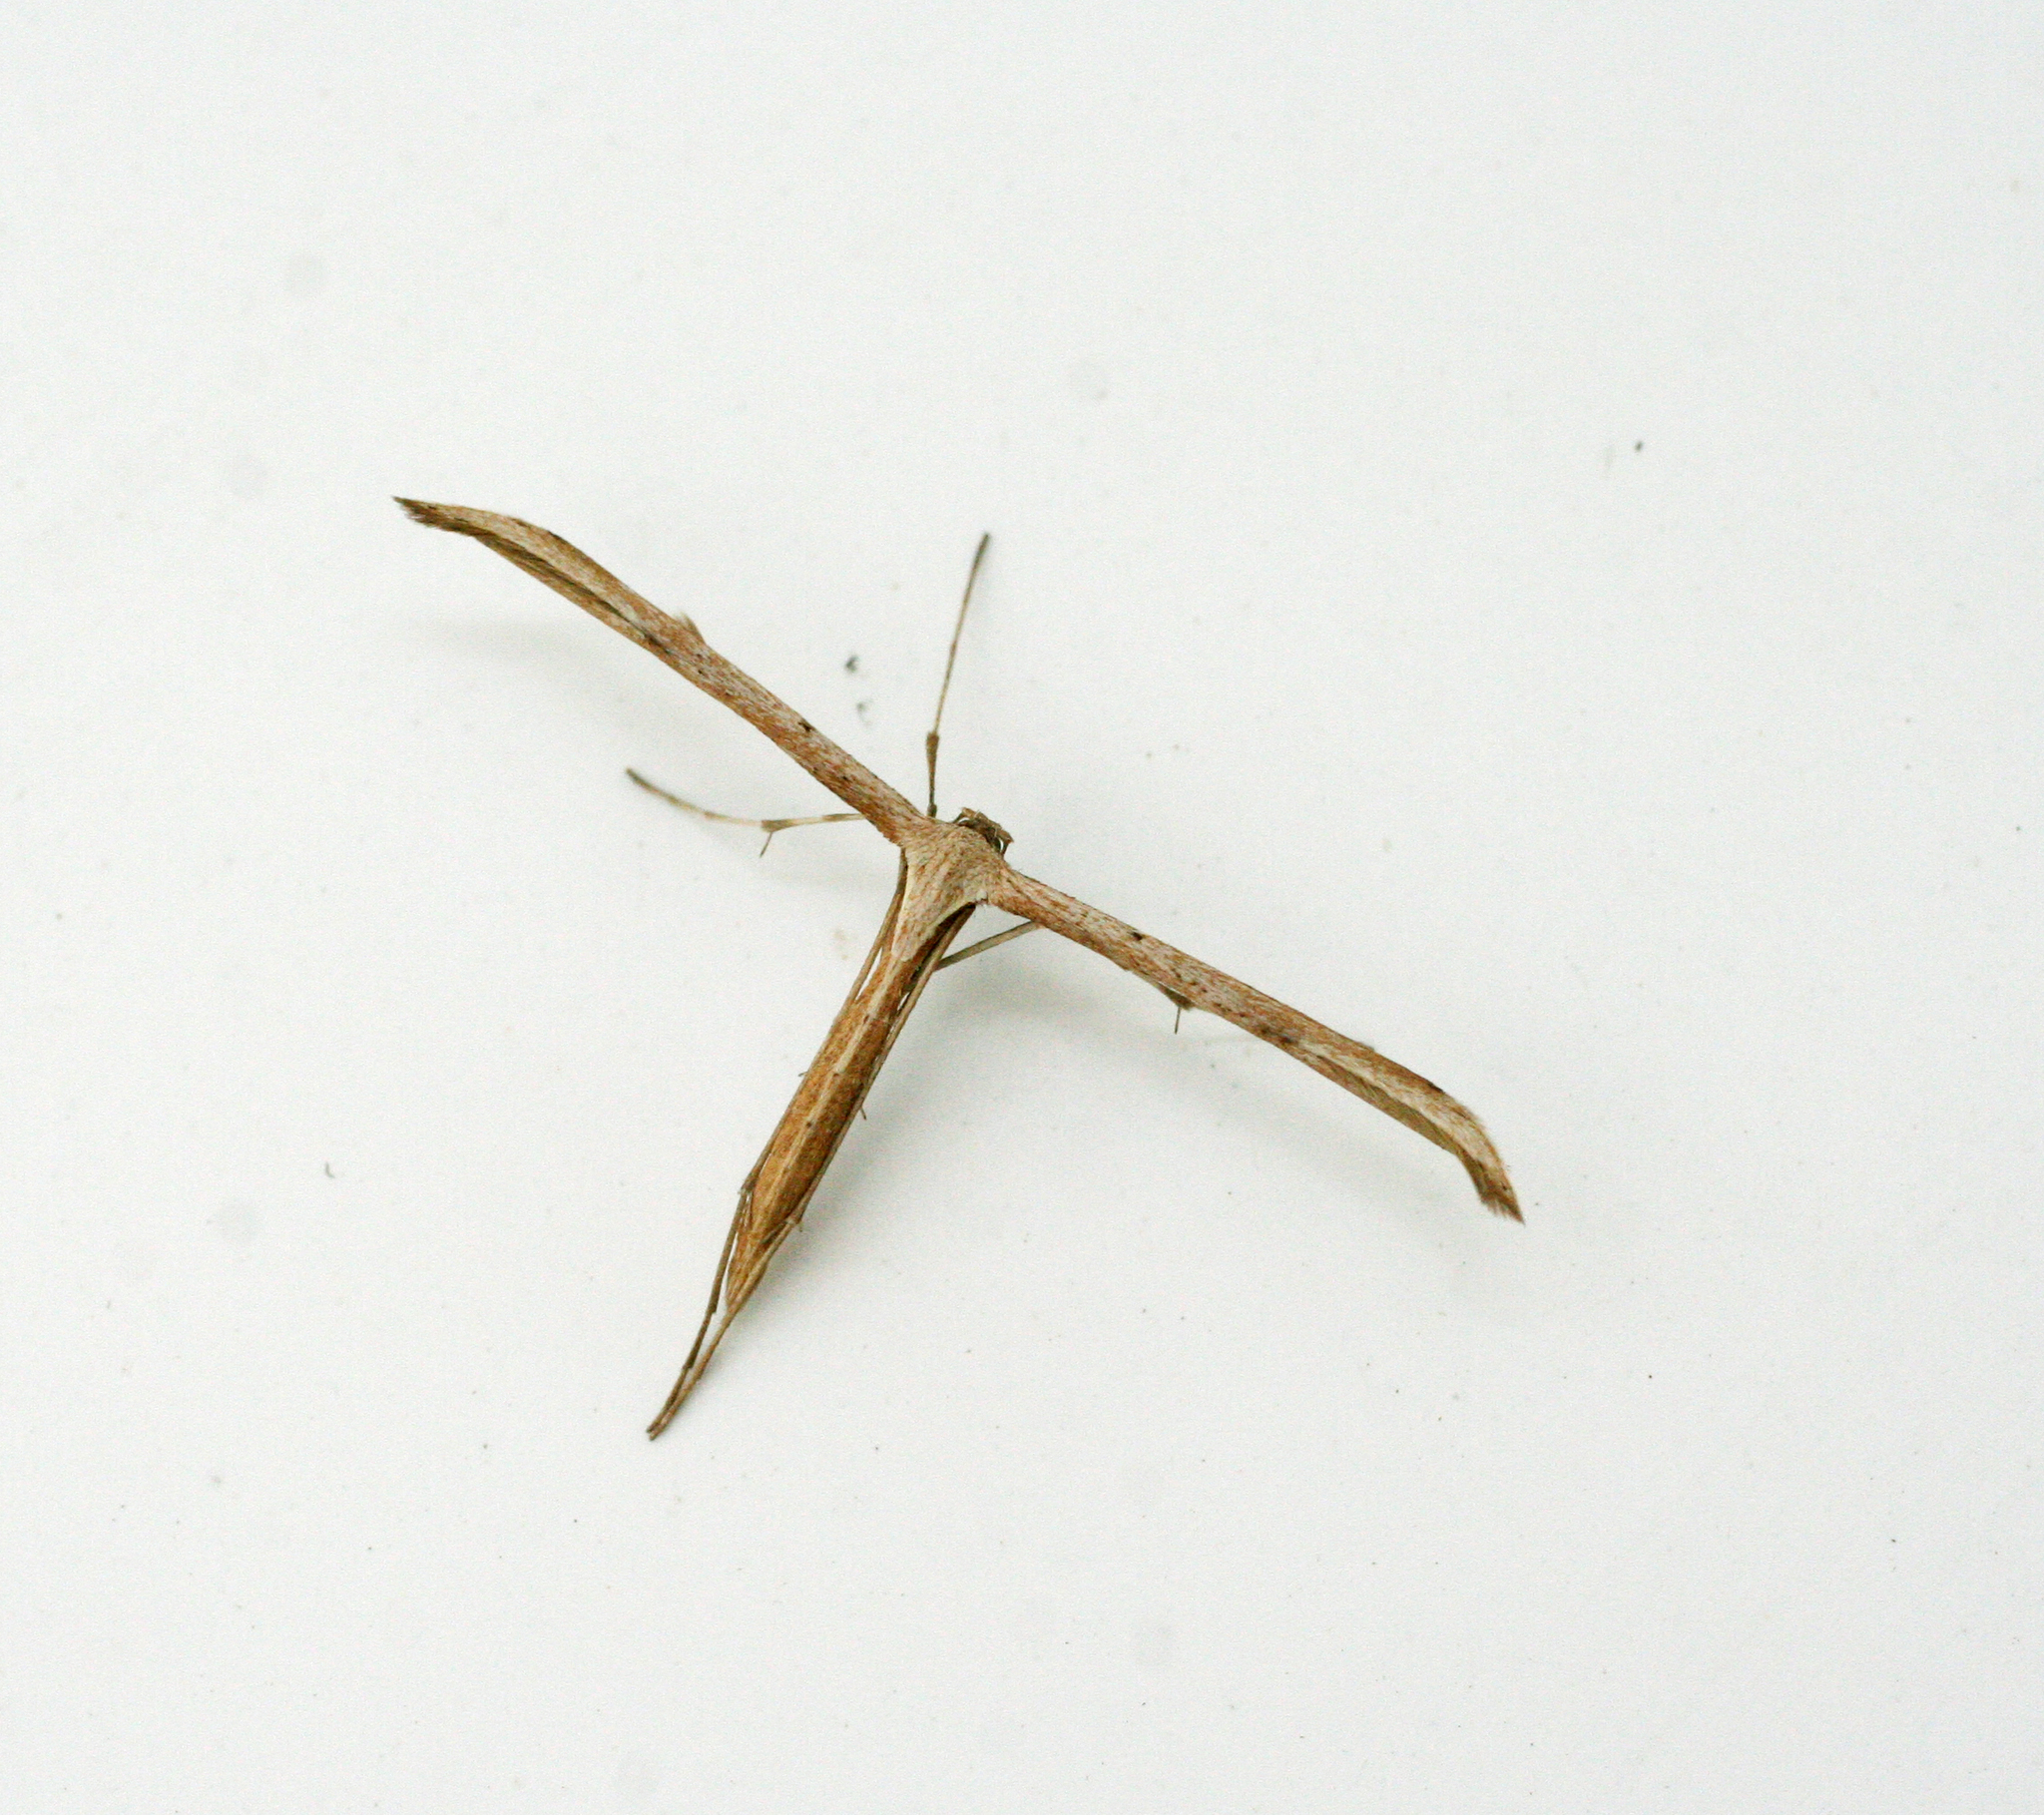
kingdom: Animalia
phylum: Arthropoda
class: Insecta
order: Lepidoptera
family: Pterophoridae
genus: Emmelina
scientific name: Emmelina monodactyla
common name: Common plume
